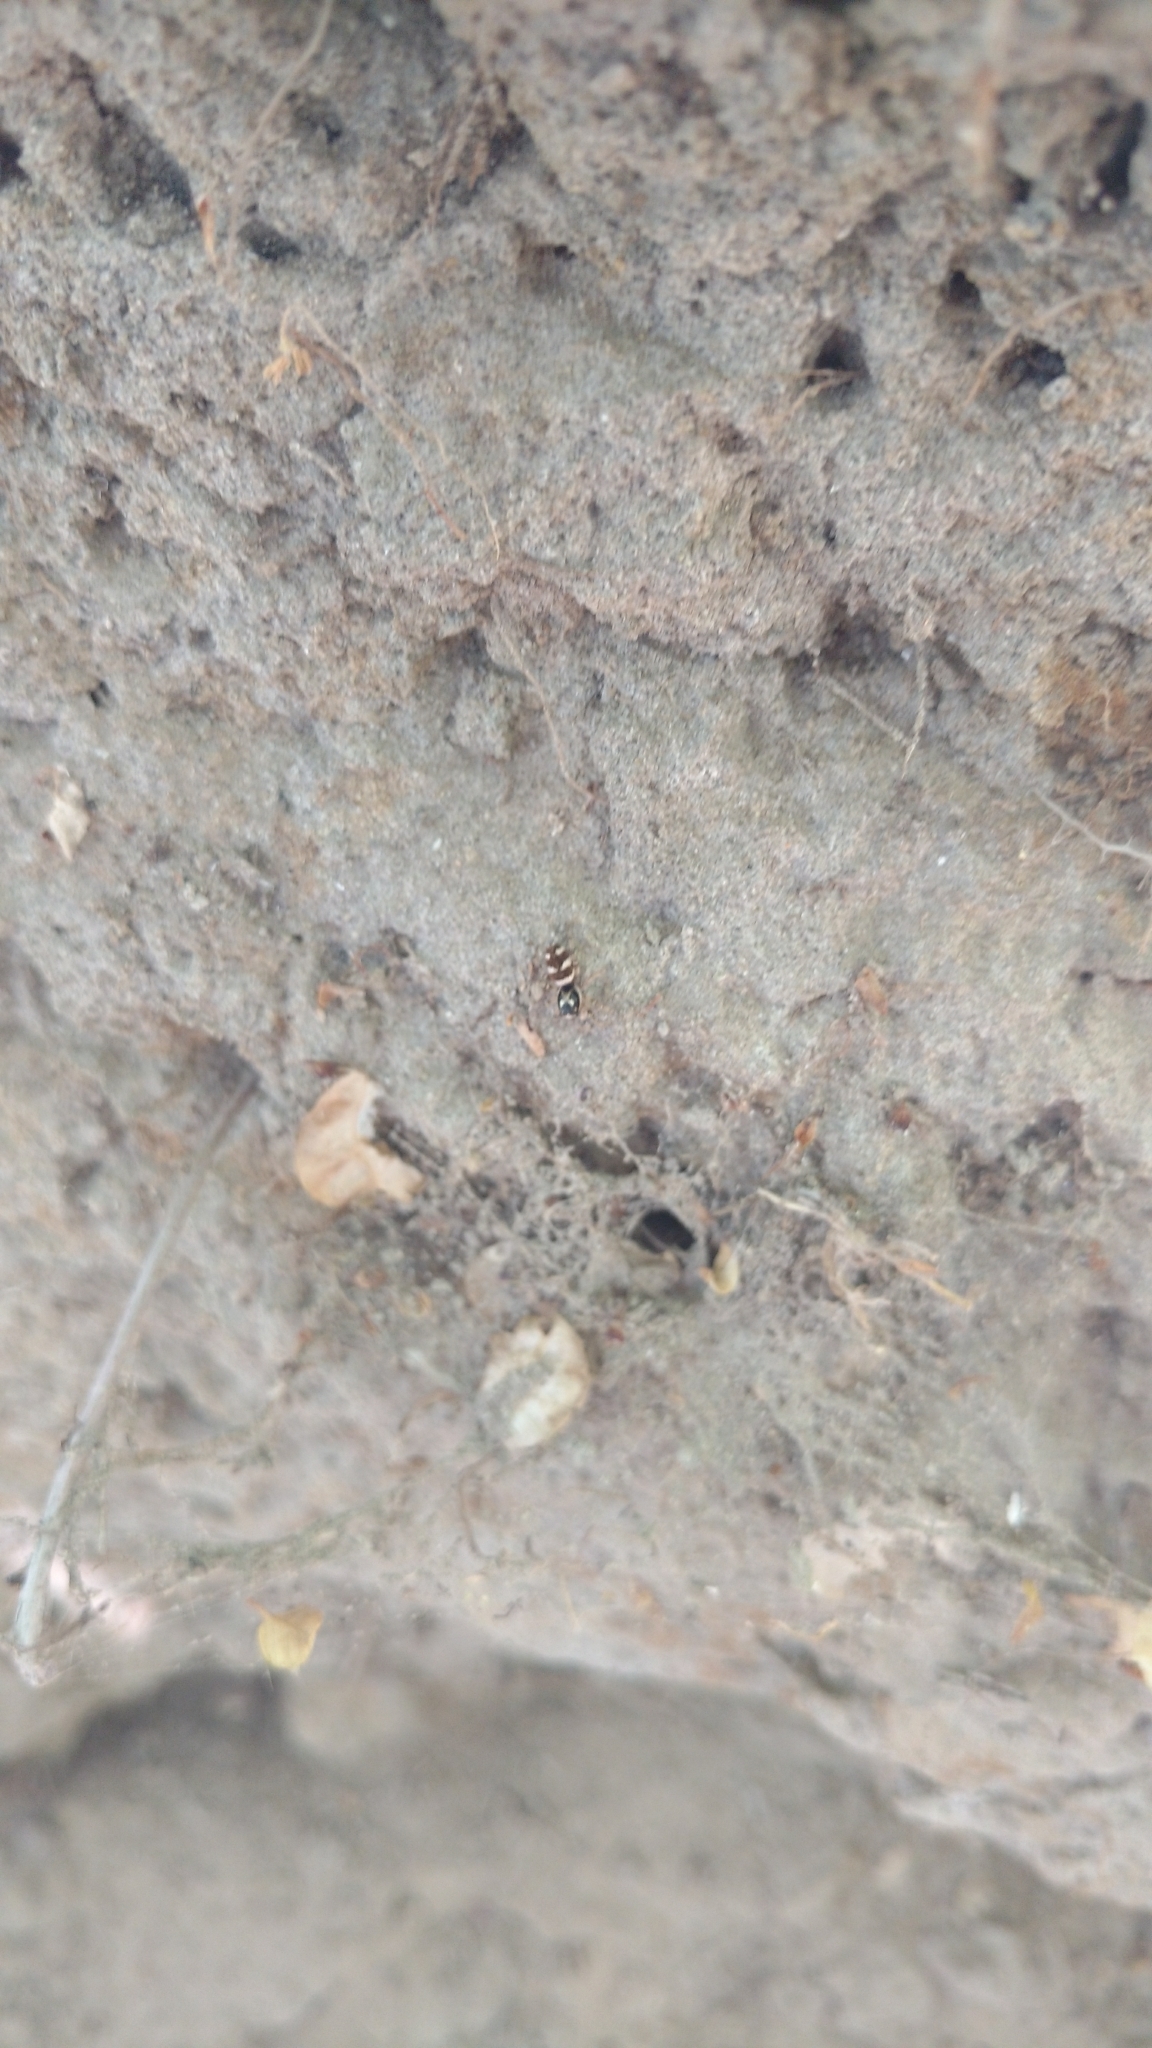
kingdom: Animalia
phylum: Arthropoda
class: Arachnida
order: Araneae
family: Salticidae
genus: Salticus
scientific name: Salticus scenicus
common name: Zebra jumper
